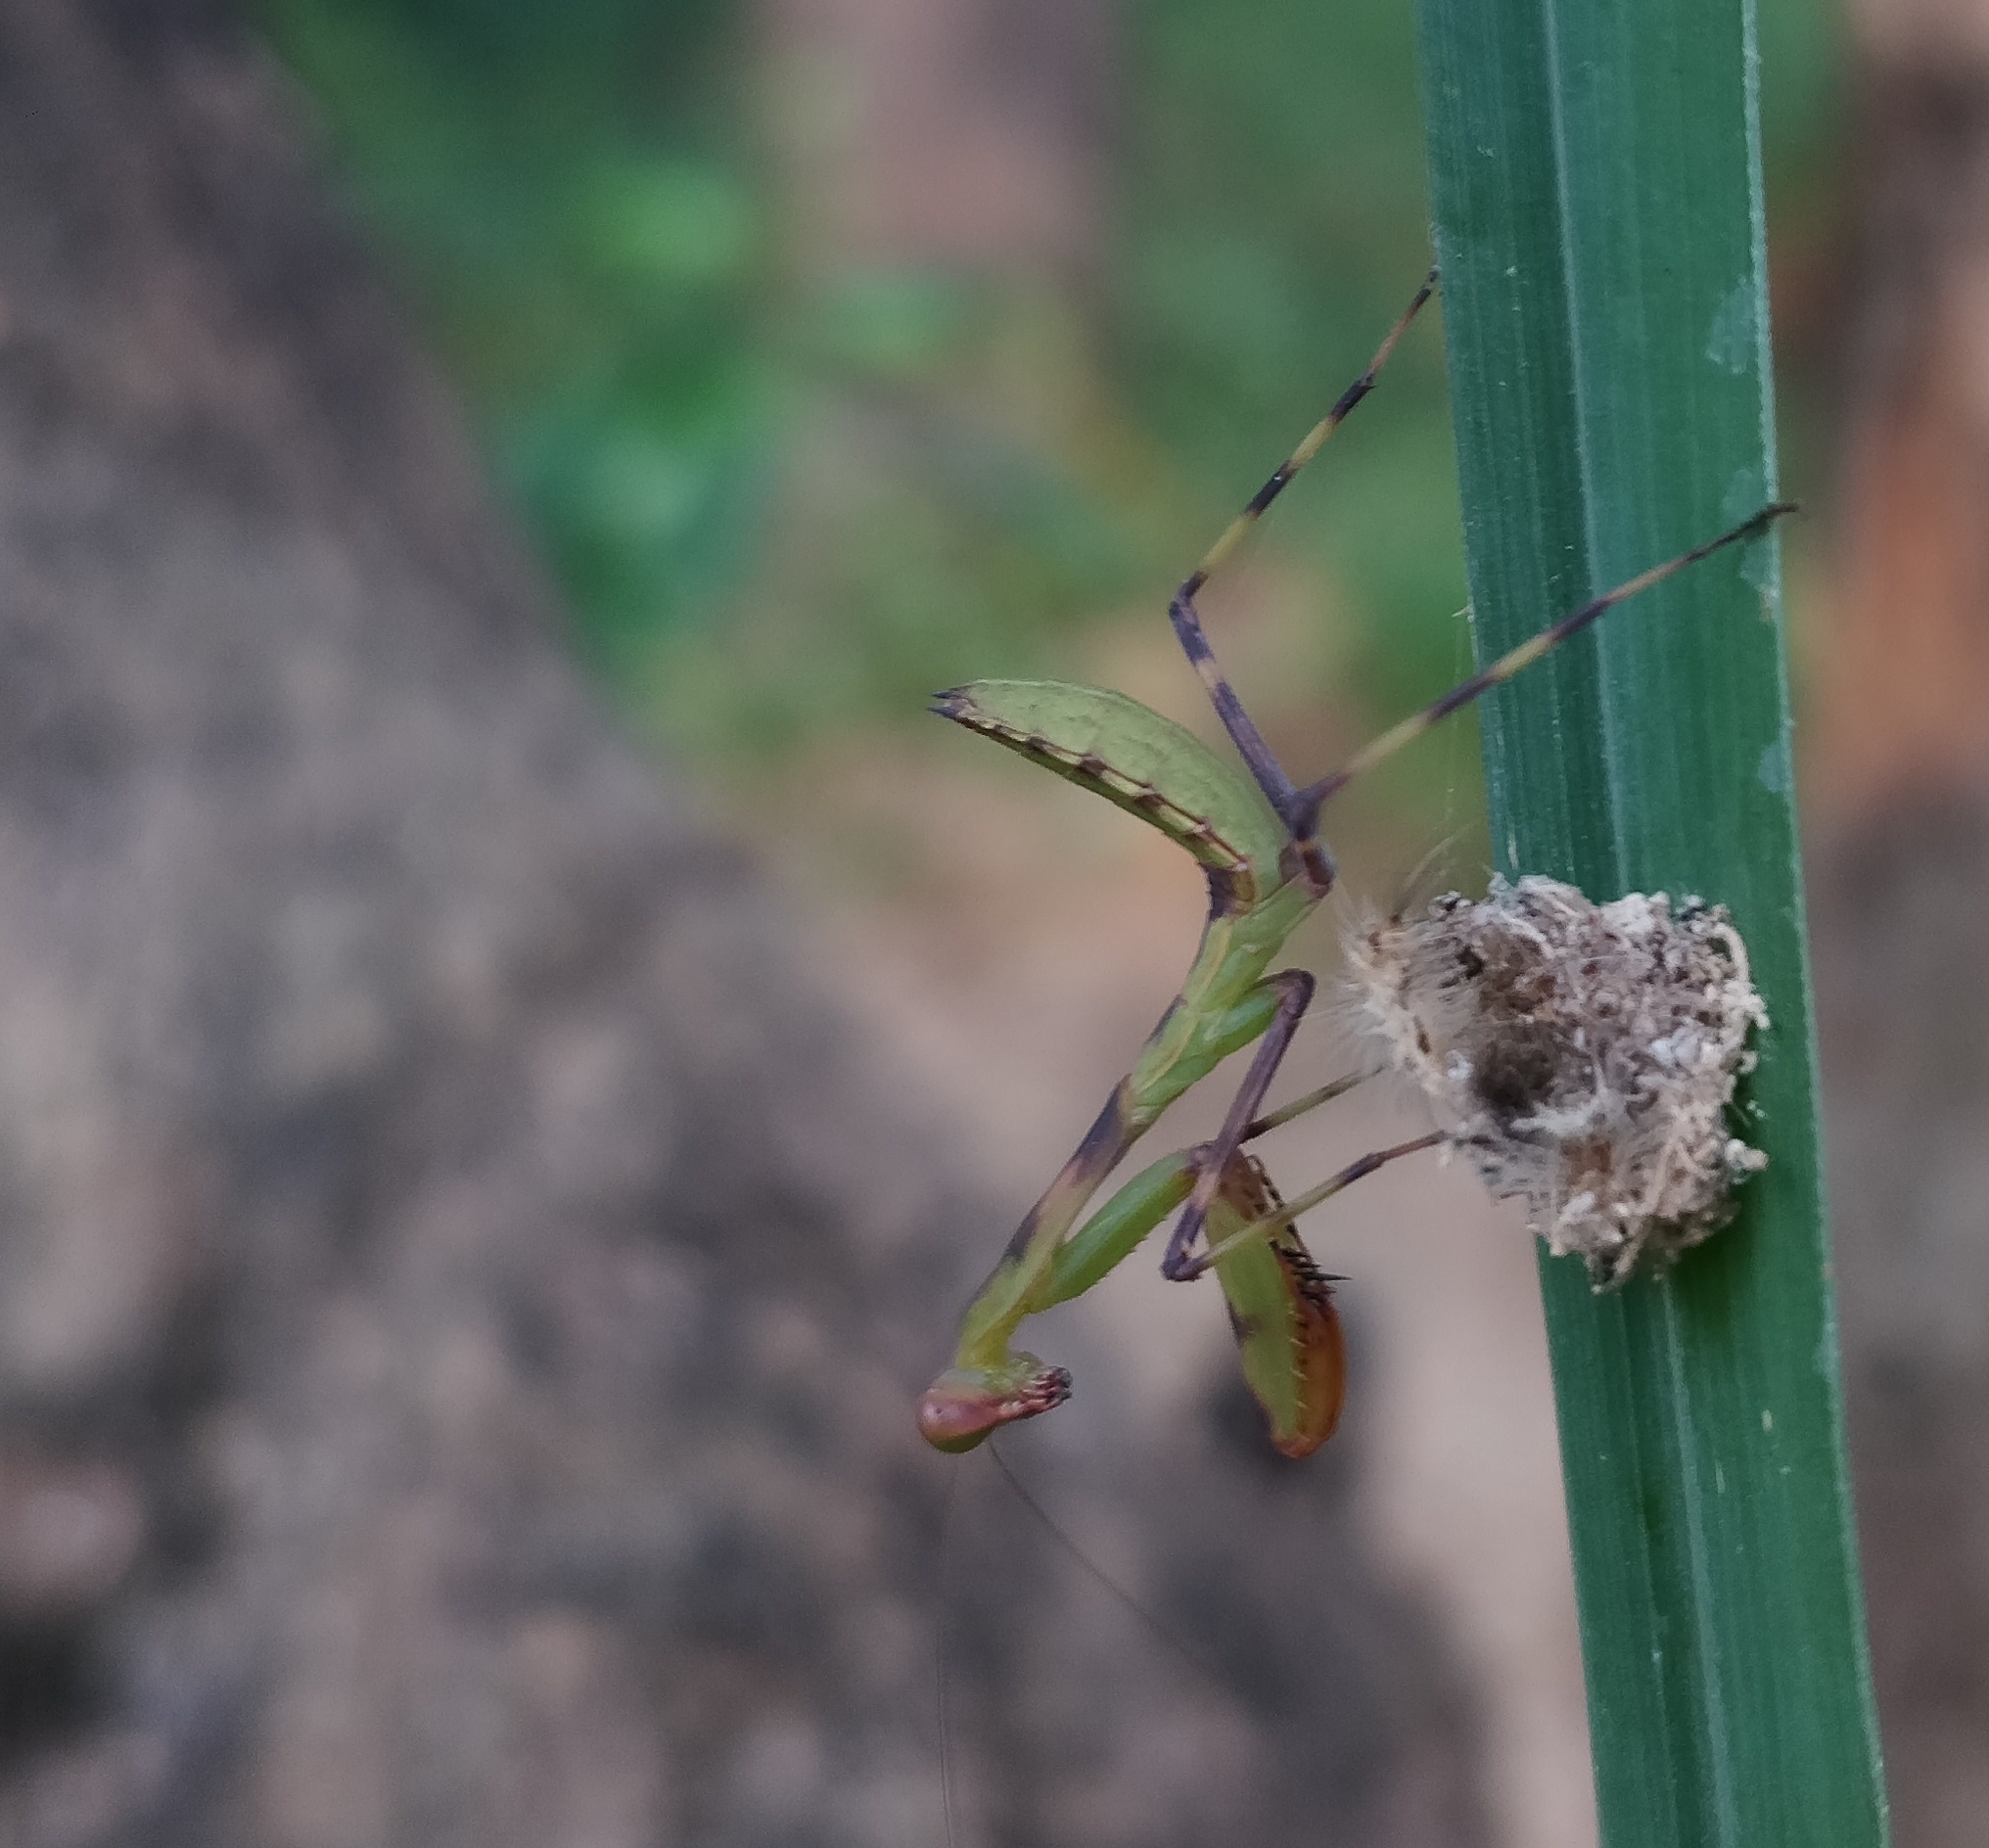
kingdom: Animalia
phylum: Arthropoda
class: Insecta
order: Mantodea
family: Mantidae
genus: Hierodula
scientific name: Hierodula tenuidentata
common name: Giant asian mantis
